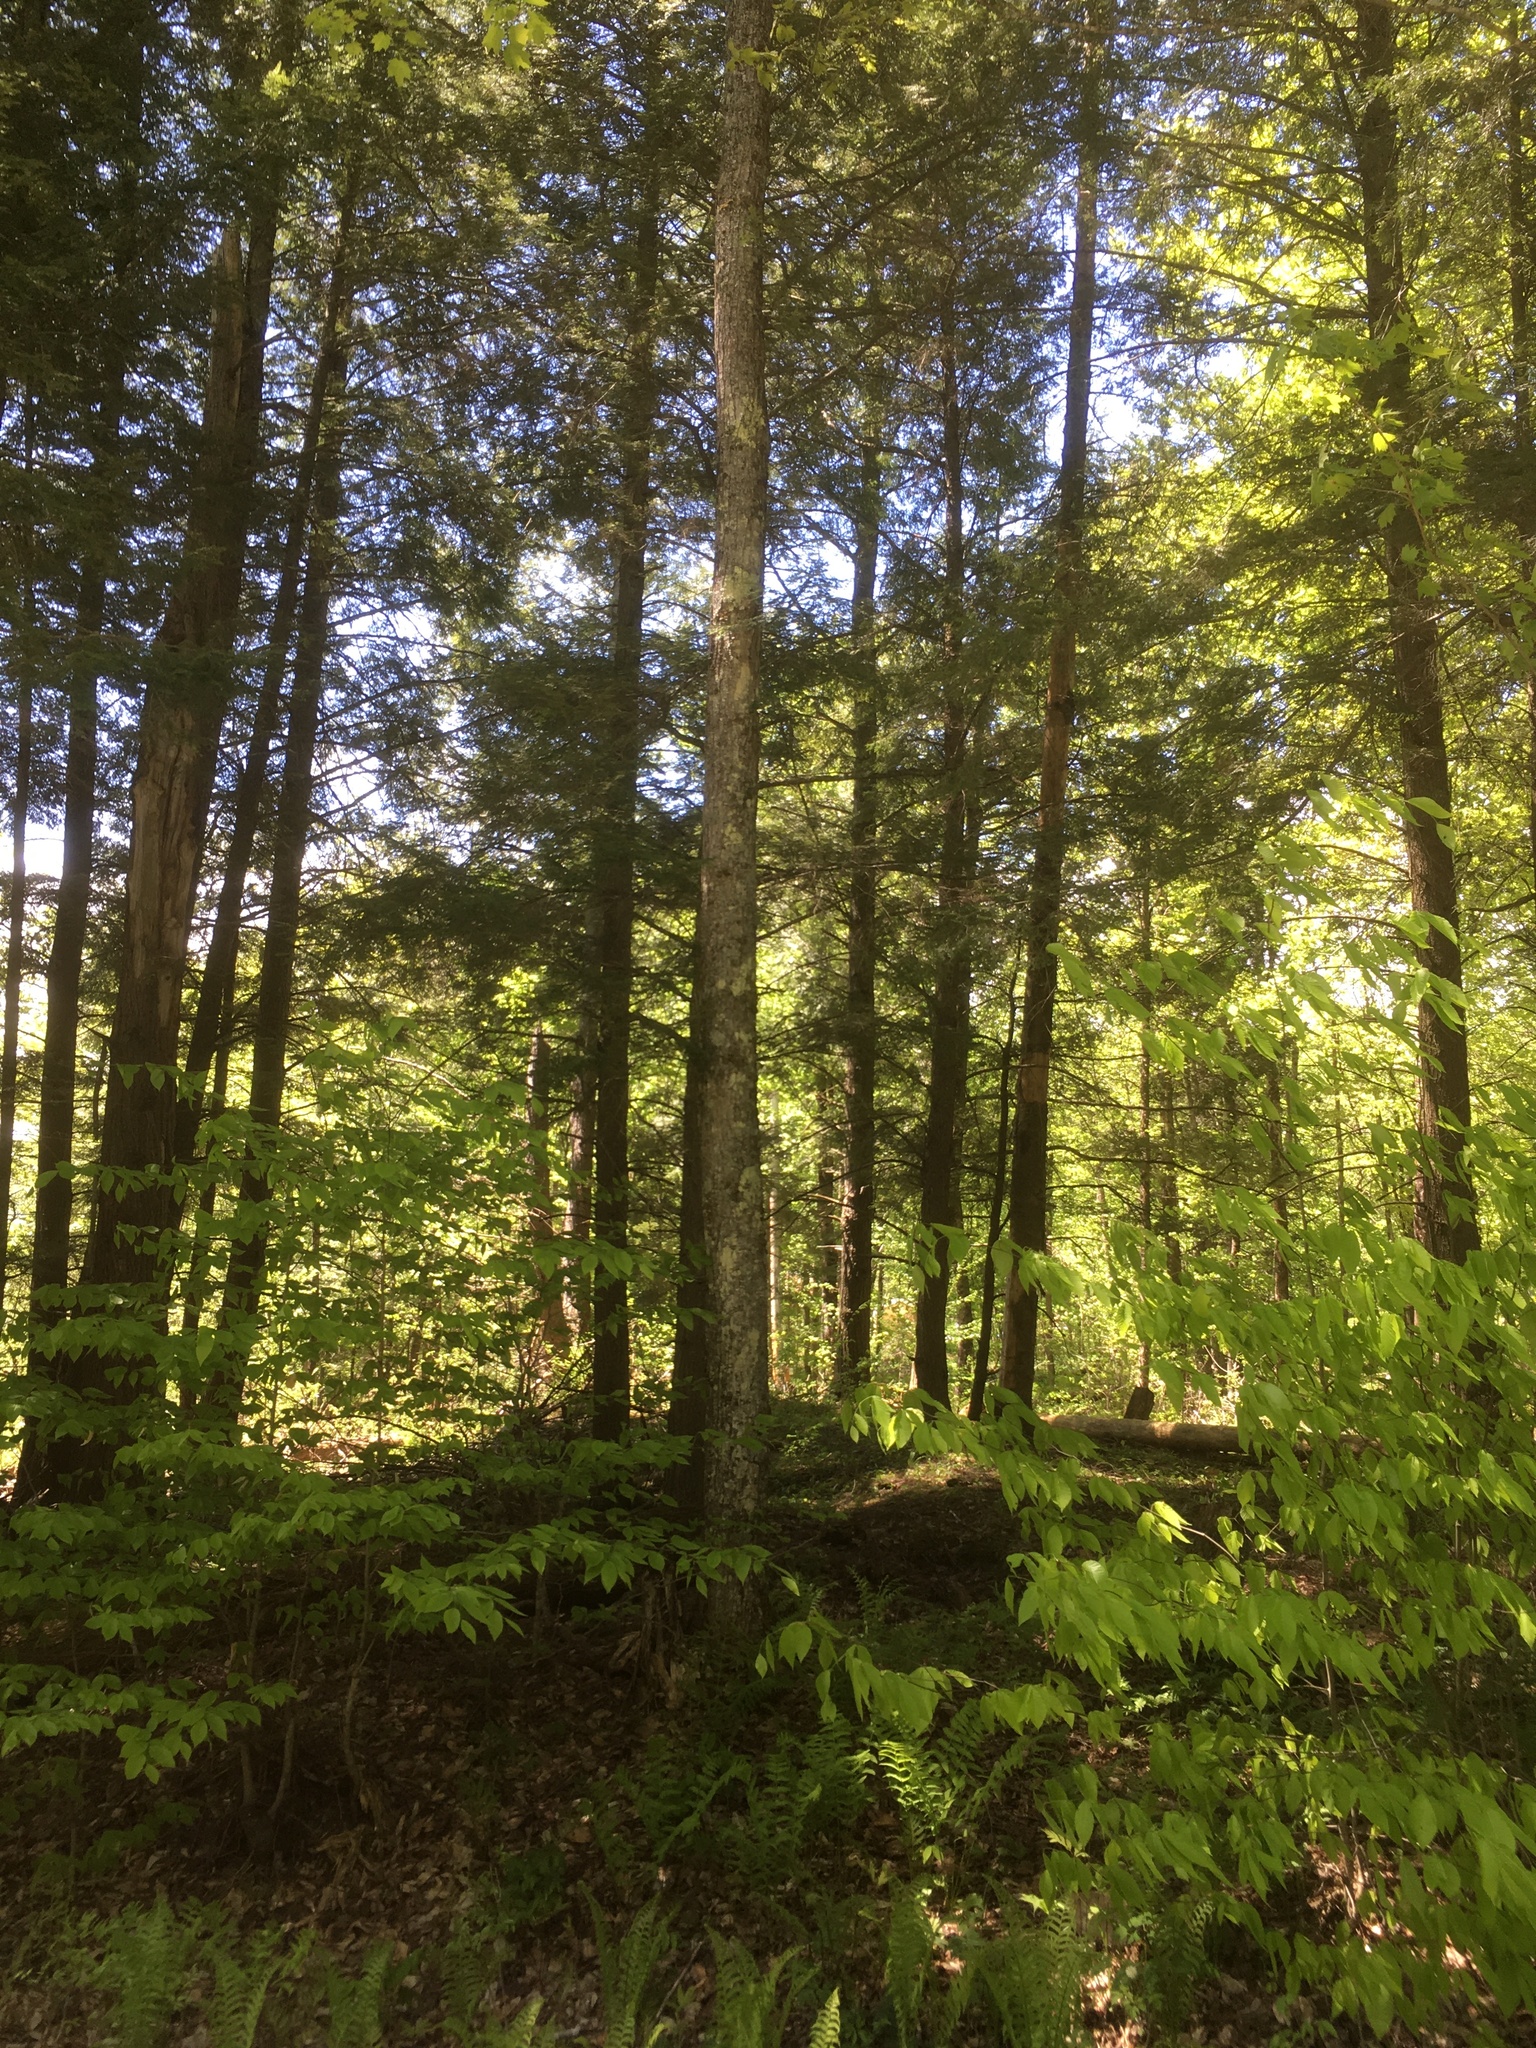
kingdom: Plantae
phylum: Tracheophyta
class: Pinopsida
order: Pinales
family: Pinaceae
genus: Tsuga
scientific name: Tsuga canadensis
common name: Eastern hemlock
